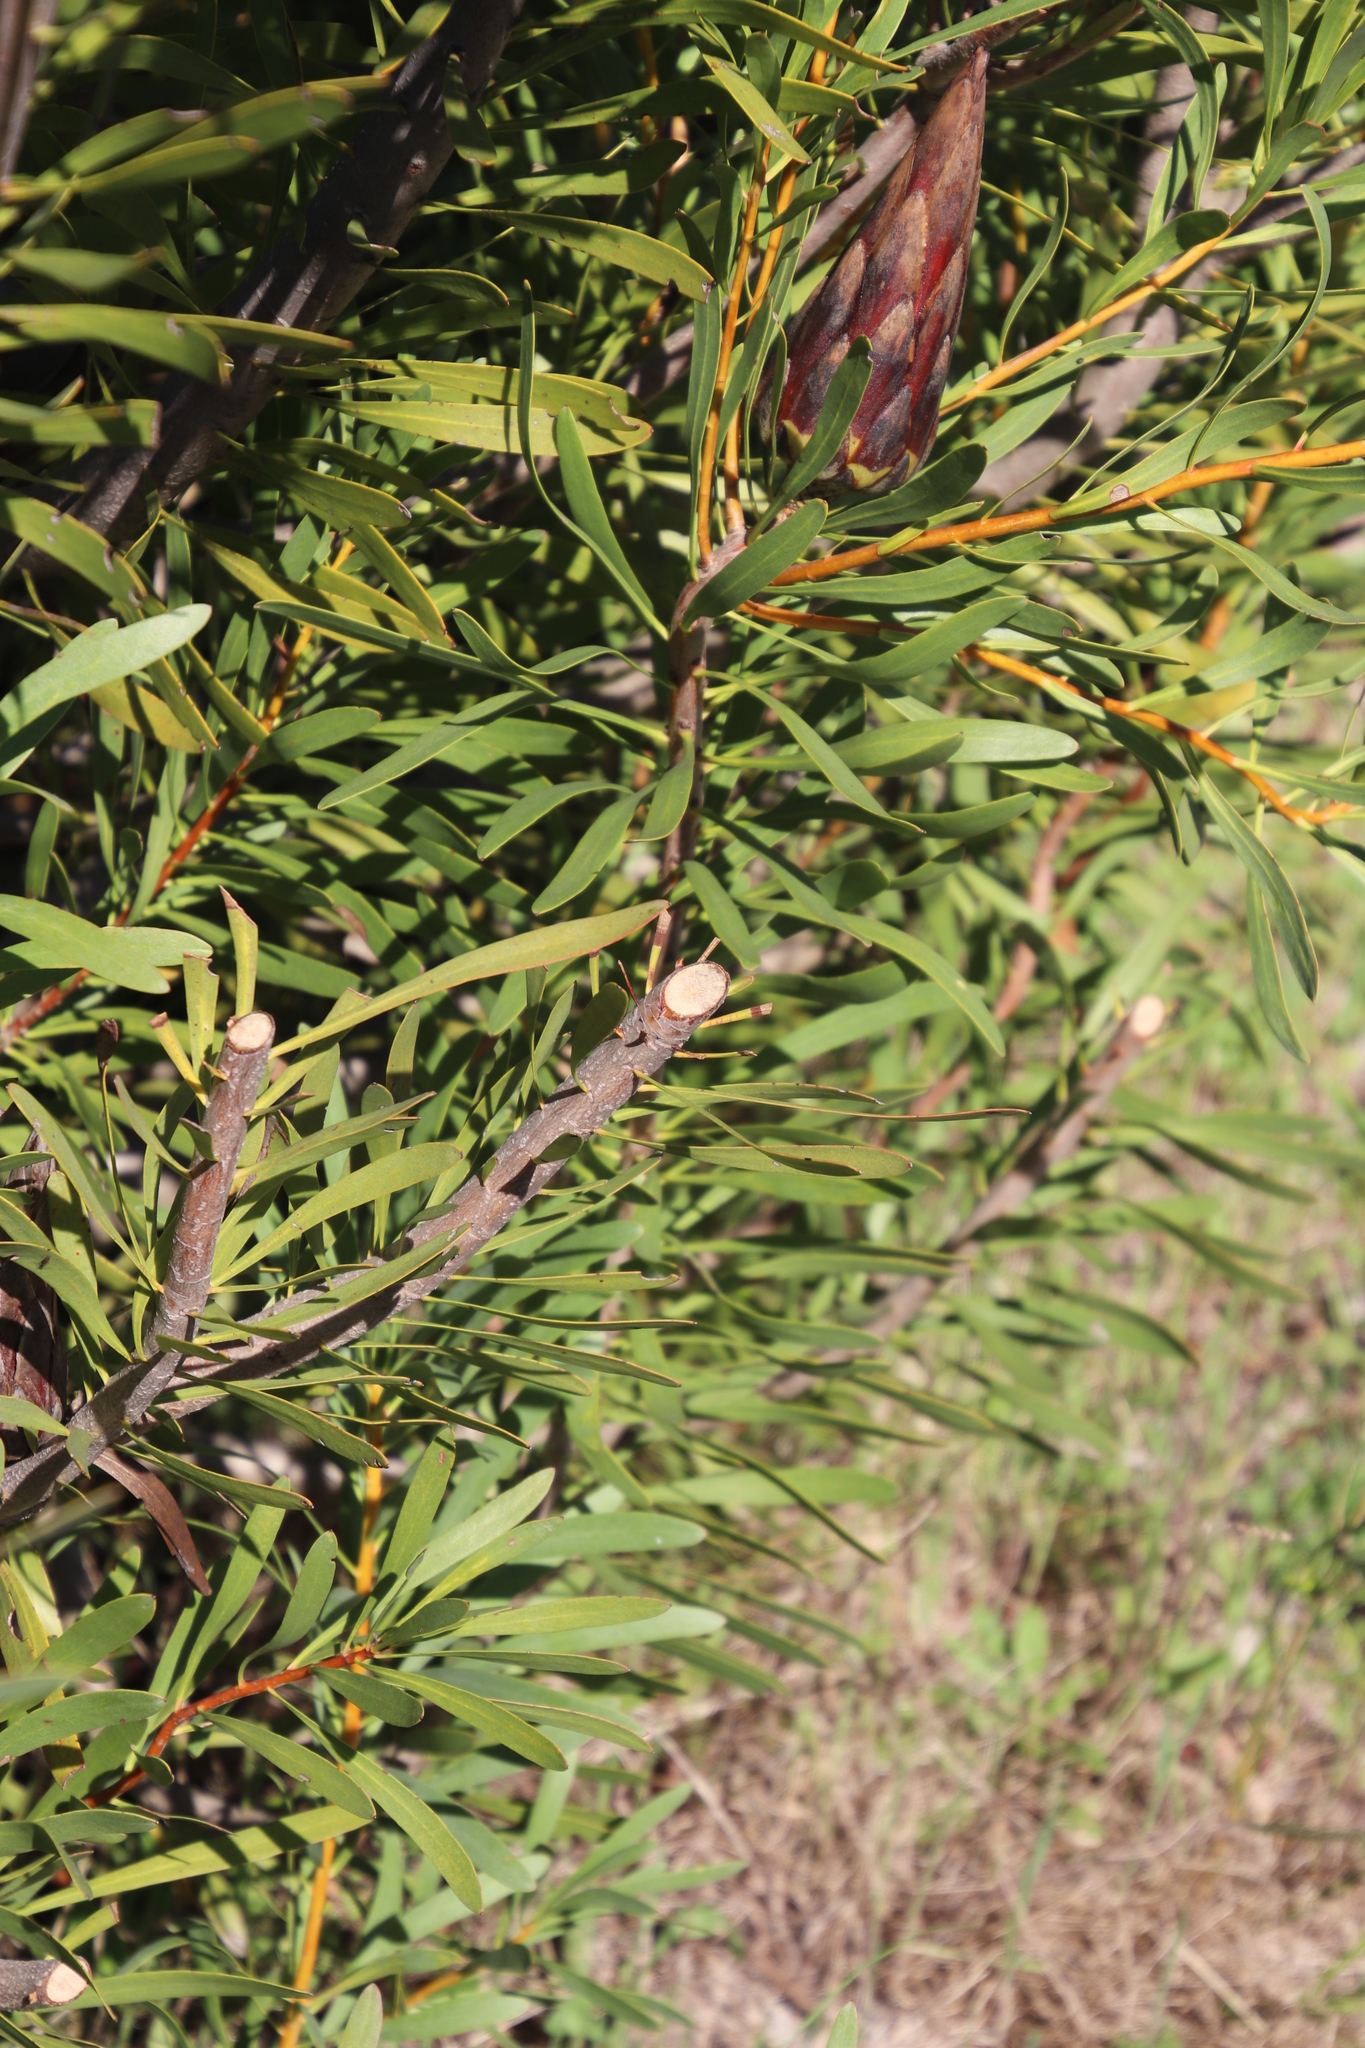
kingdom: Plantae
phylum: Tracheophyta
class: Magnoliopsida
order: Proteales
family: Proteaceae
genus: Protea
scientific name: Protea repens
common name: Sugarbush
